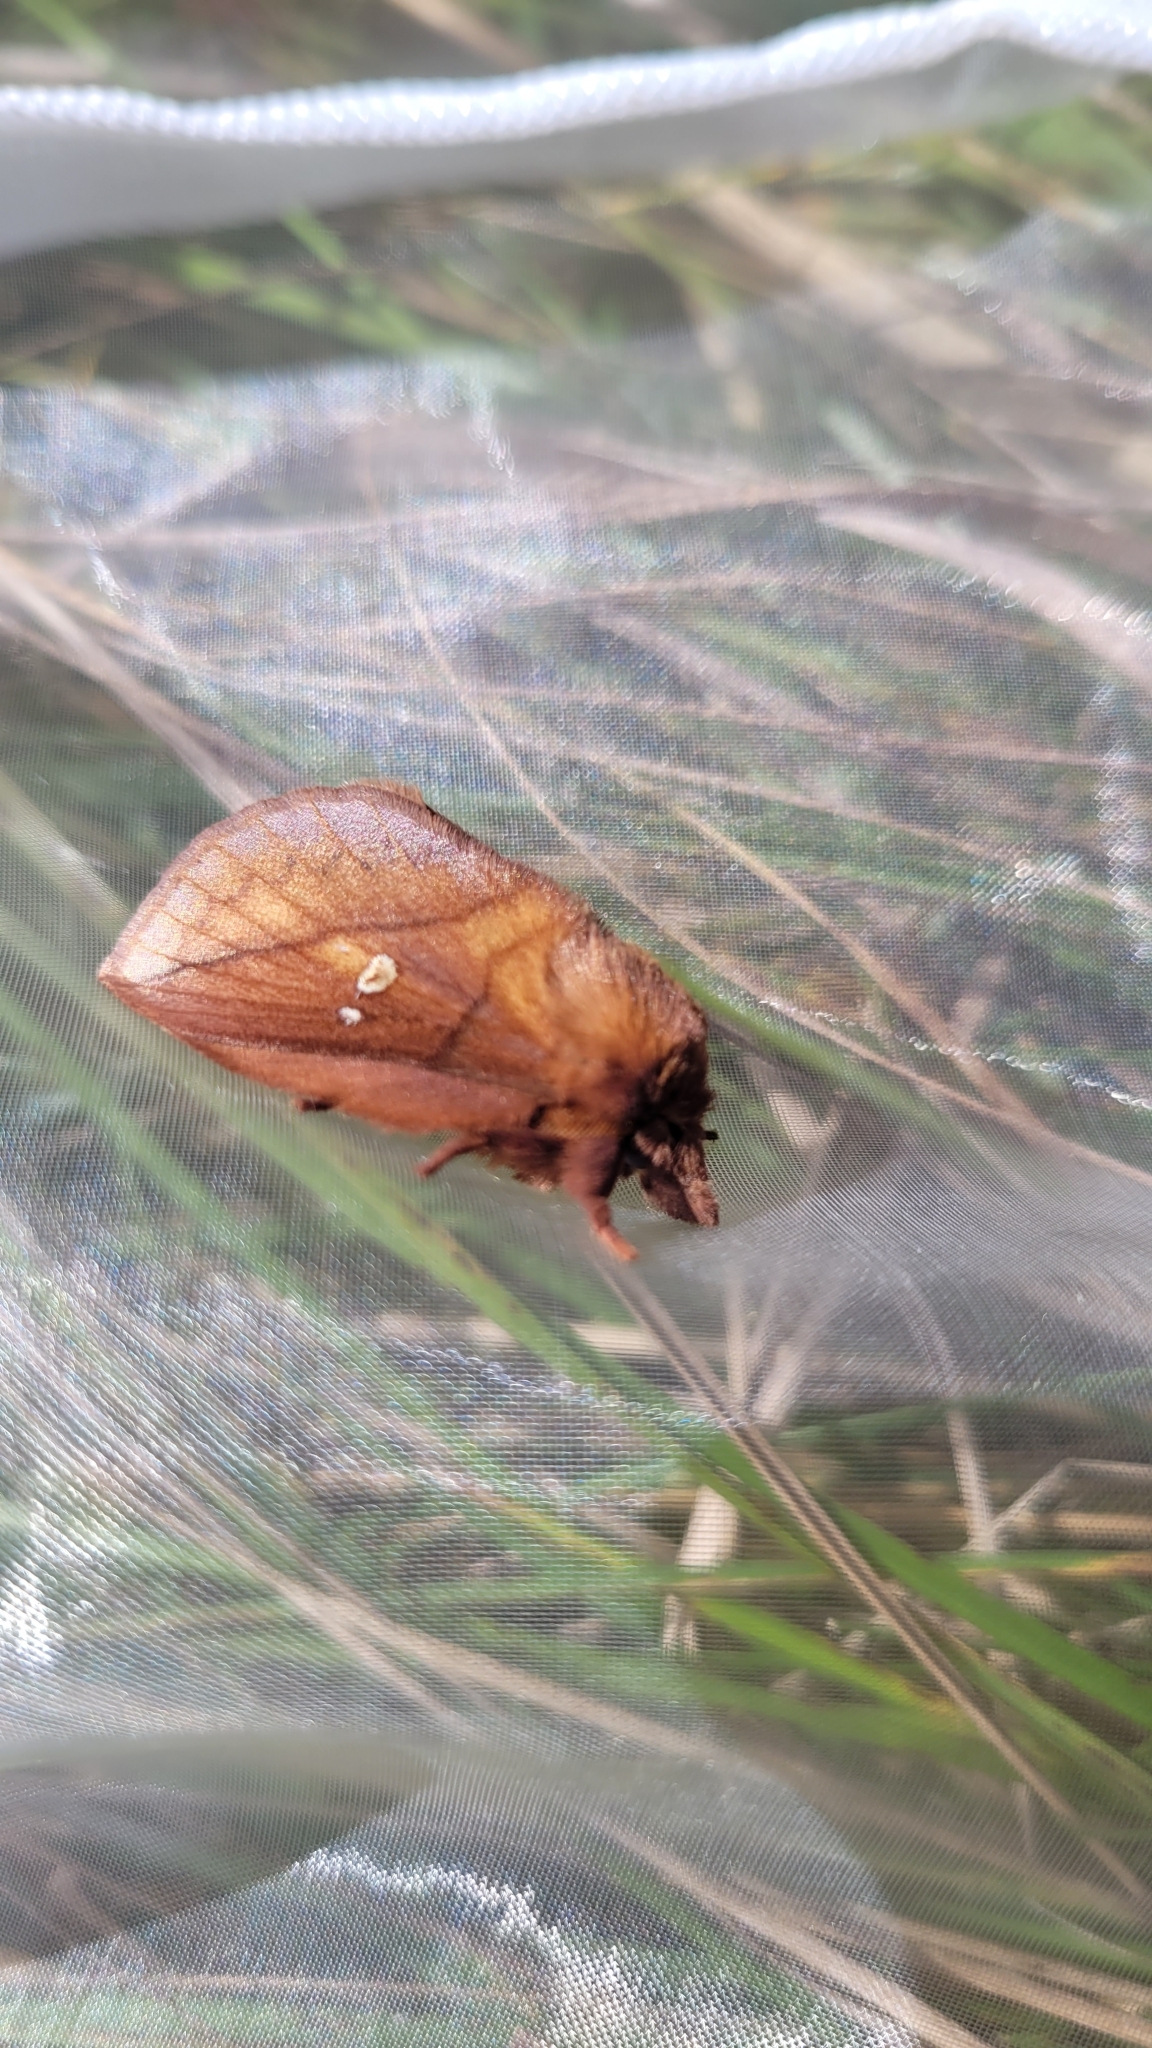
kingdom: Animalia
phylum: Arthropoda
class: Insecta
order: Lepidoptera
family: Lasiocampidae
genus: Euthrix
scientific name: Euthrix potatoria
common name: Drinker
